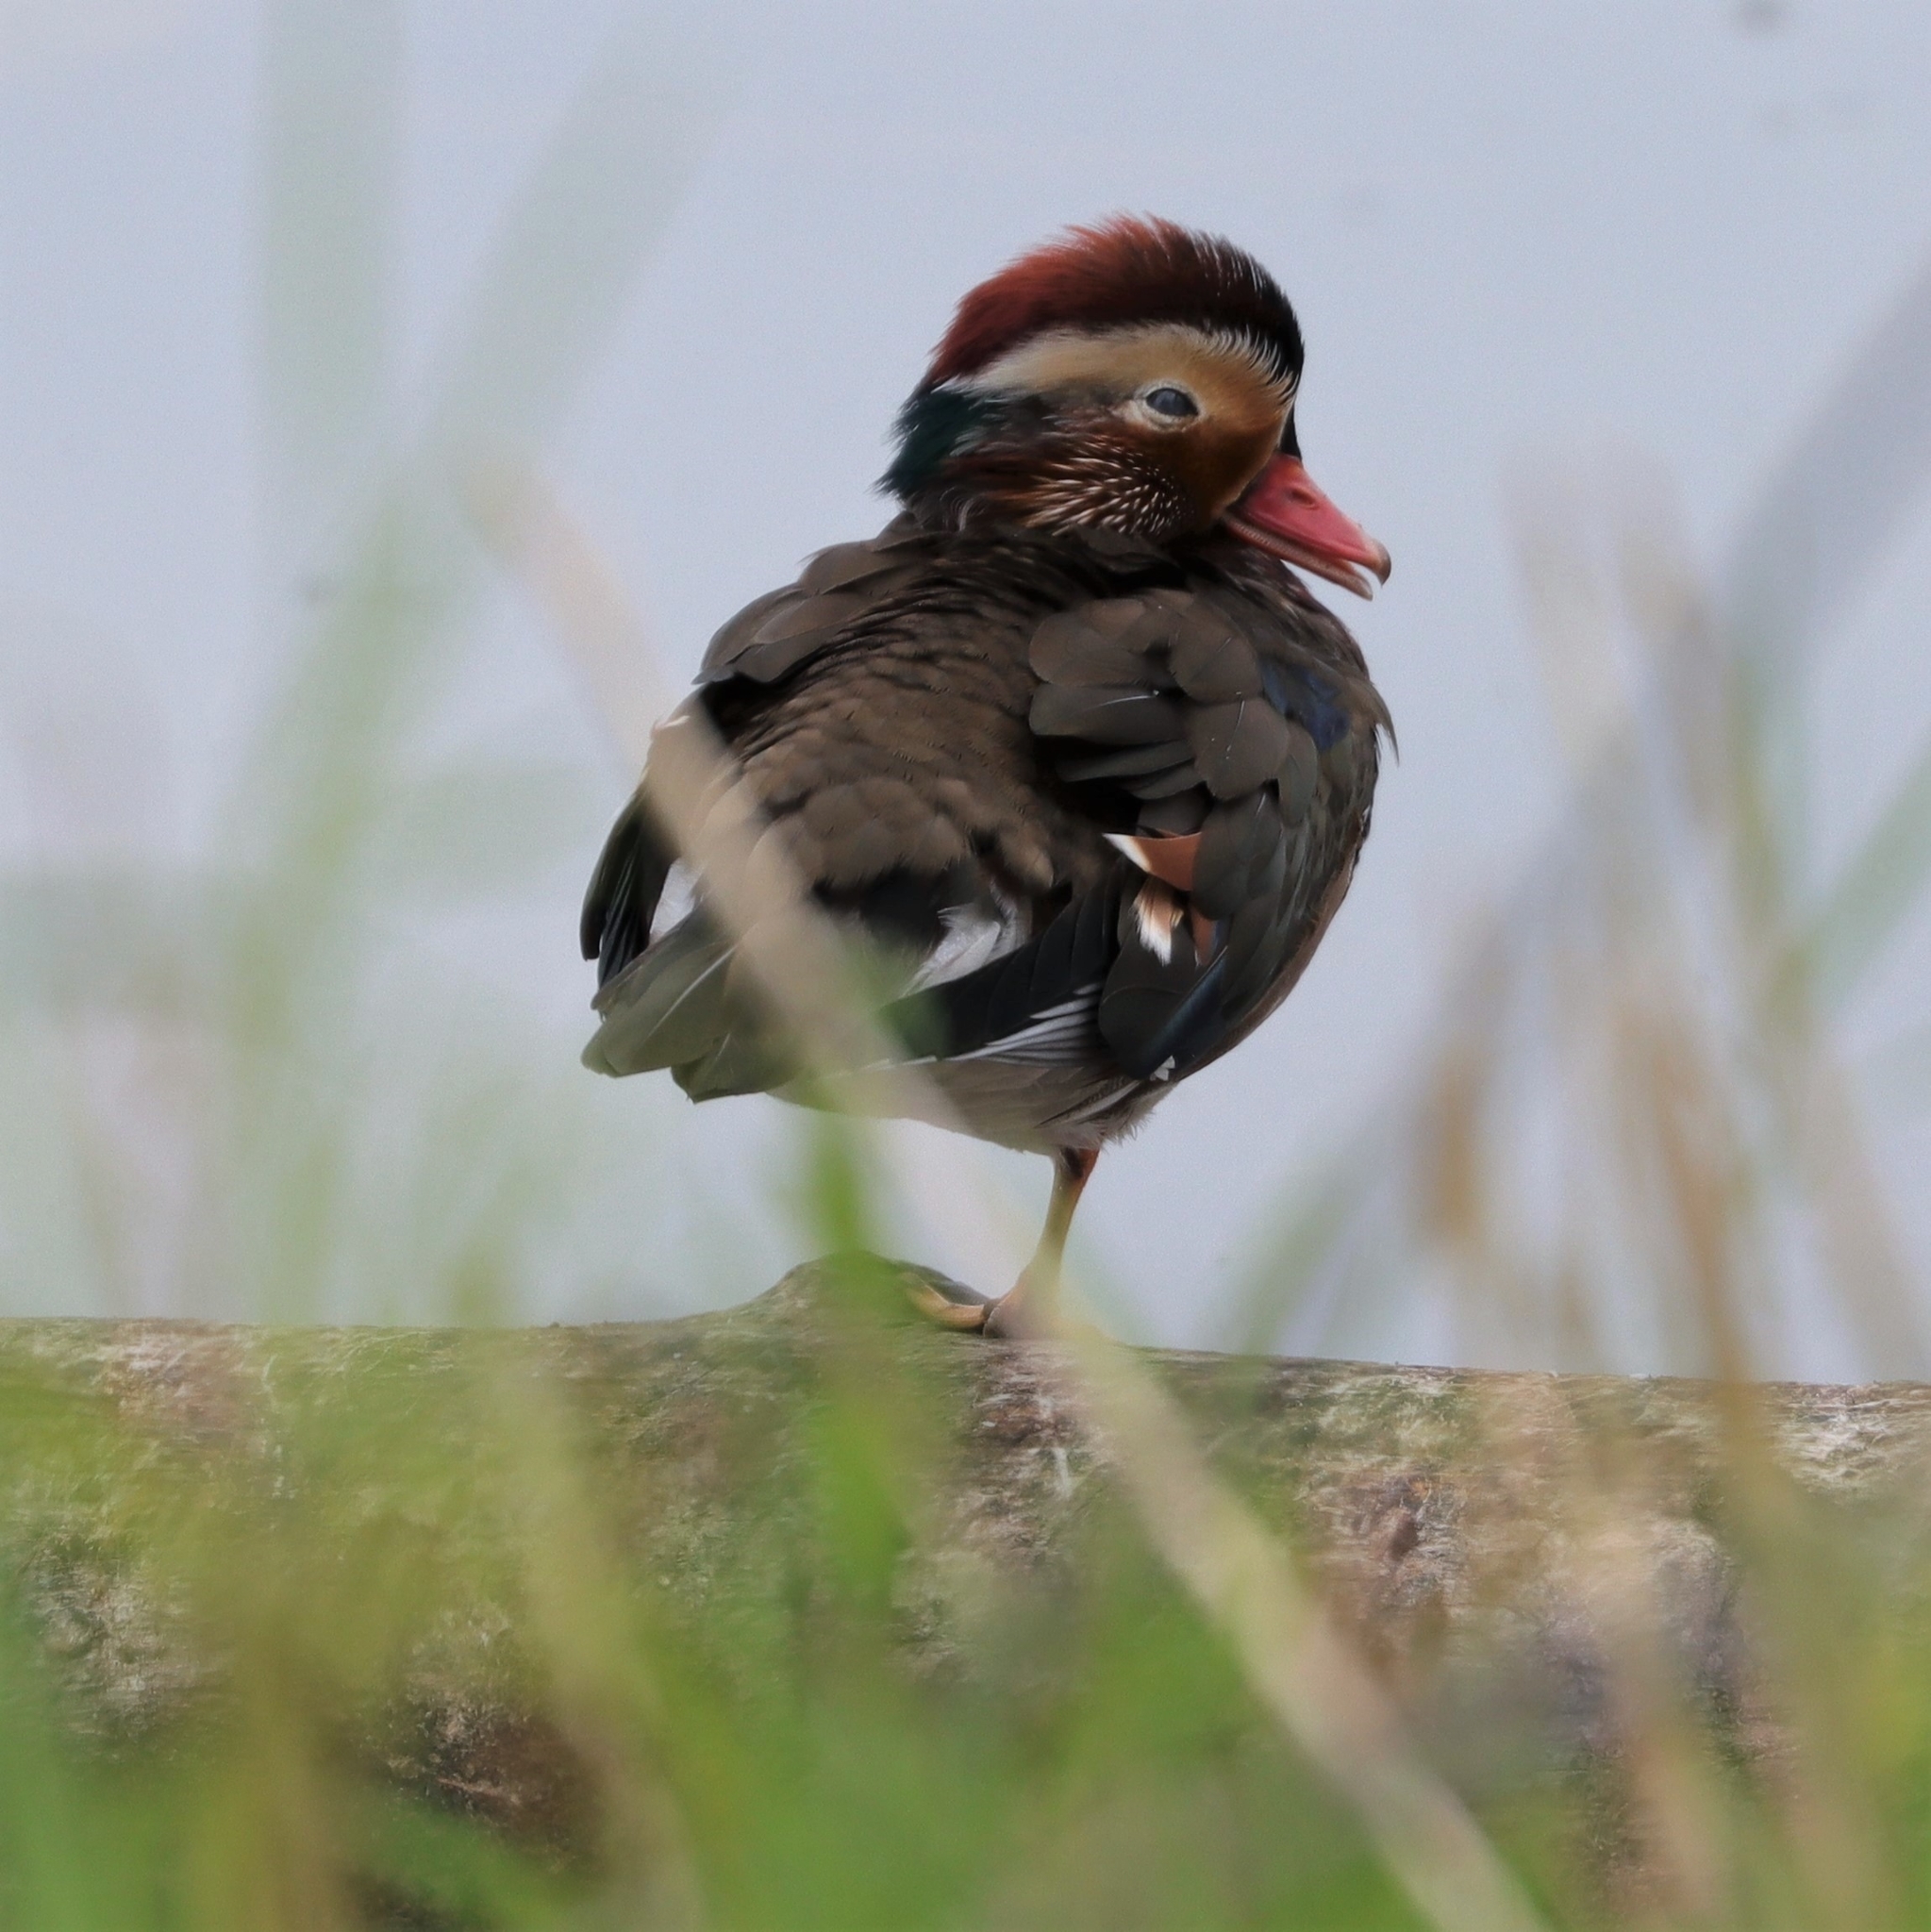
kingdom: Animalia
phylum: Chordata
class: Aves
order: Anseriformes
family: Anatidae
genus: Aix
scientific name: Aix galericulata
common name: Mandarin duck
